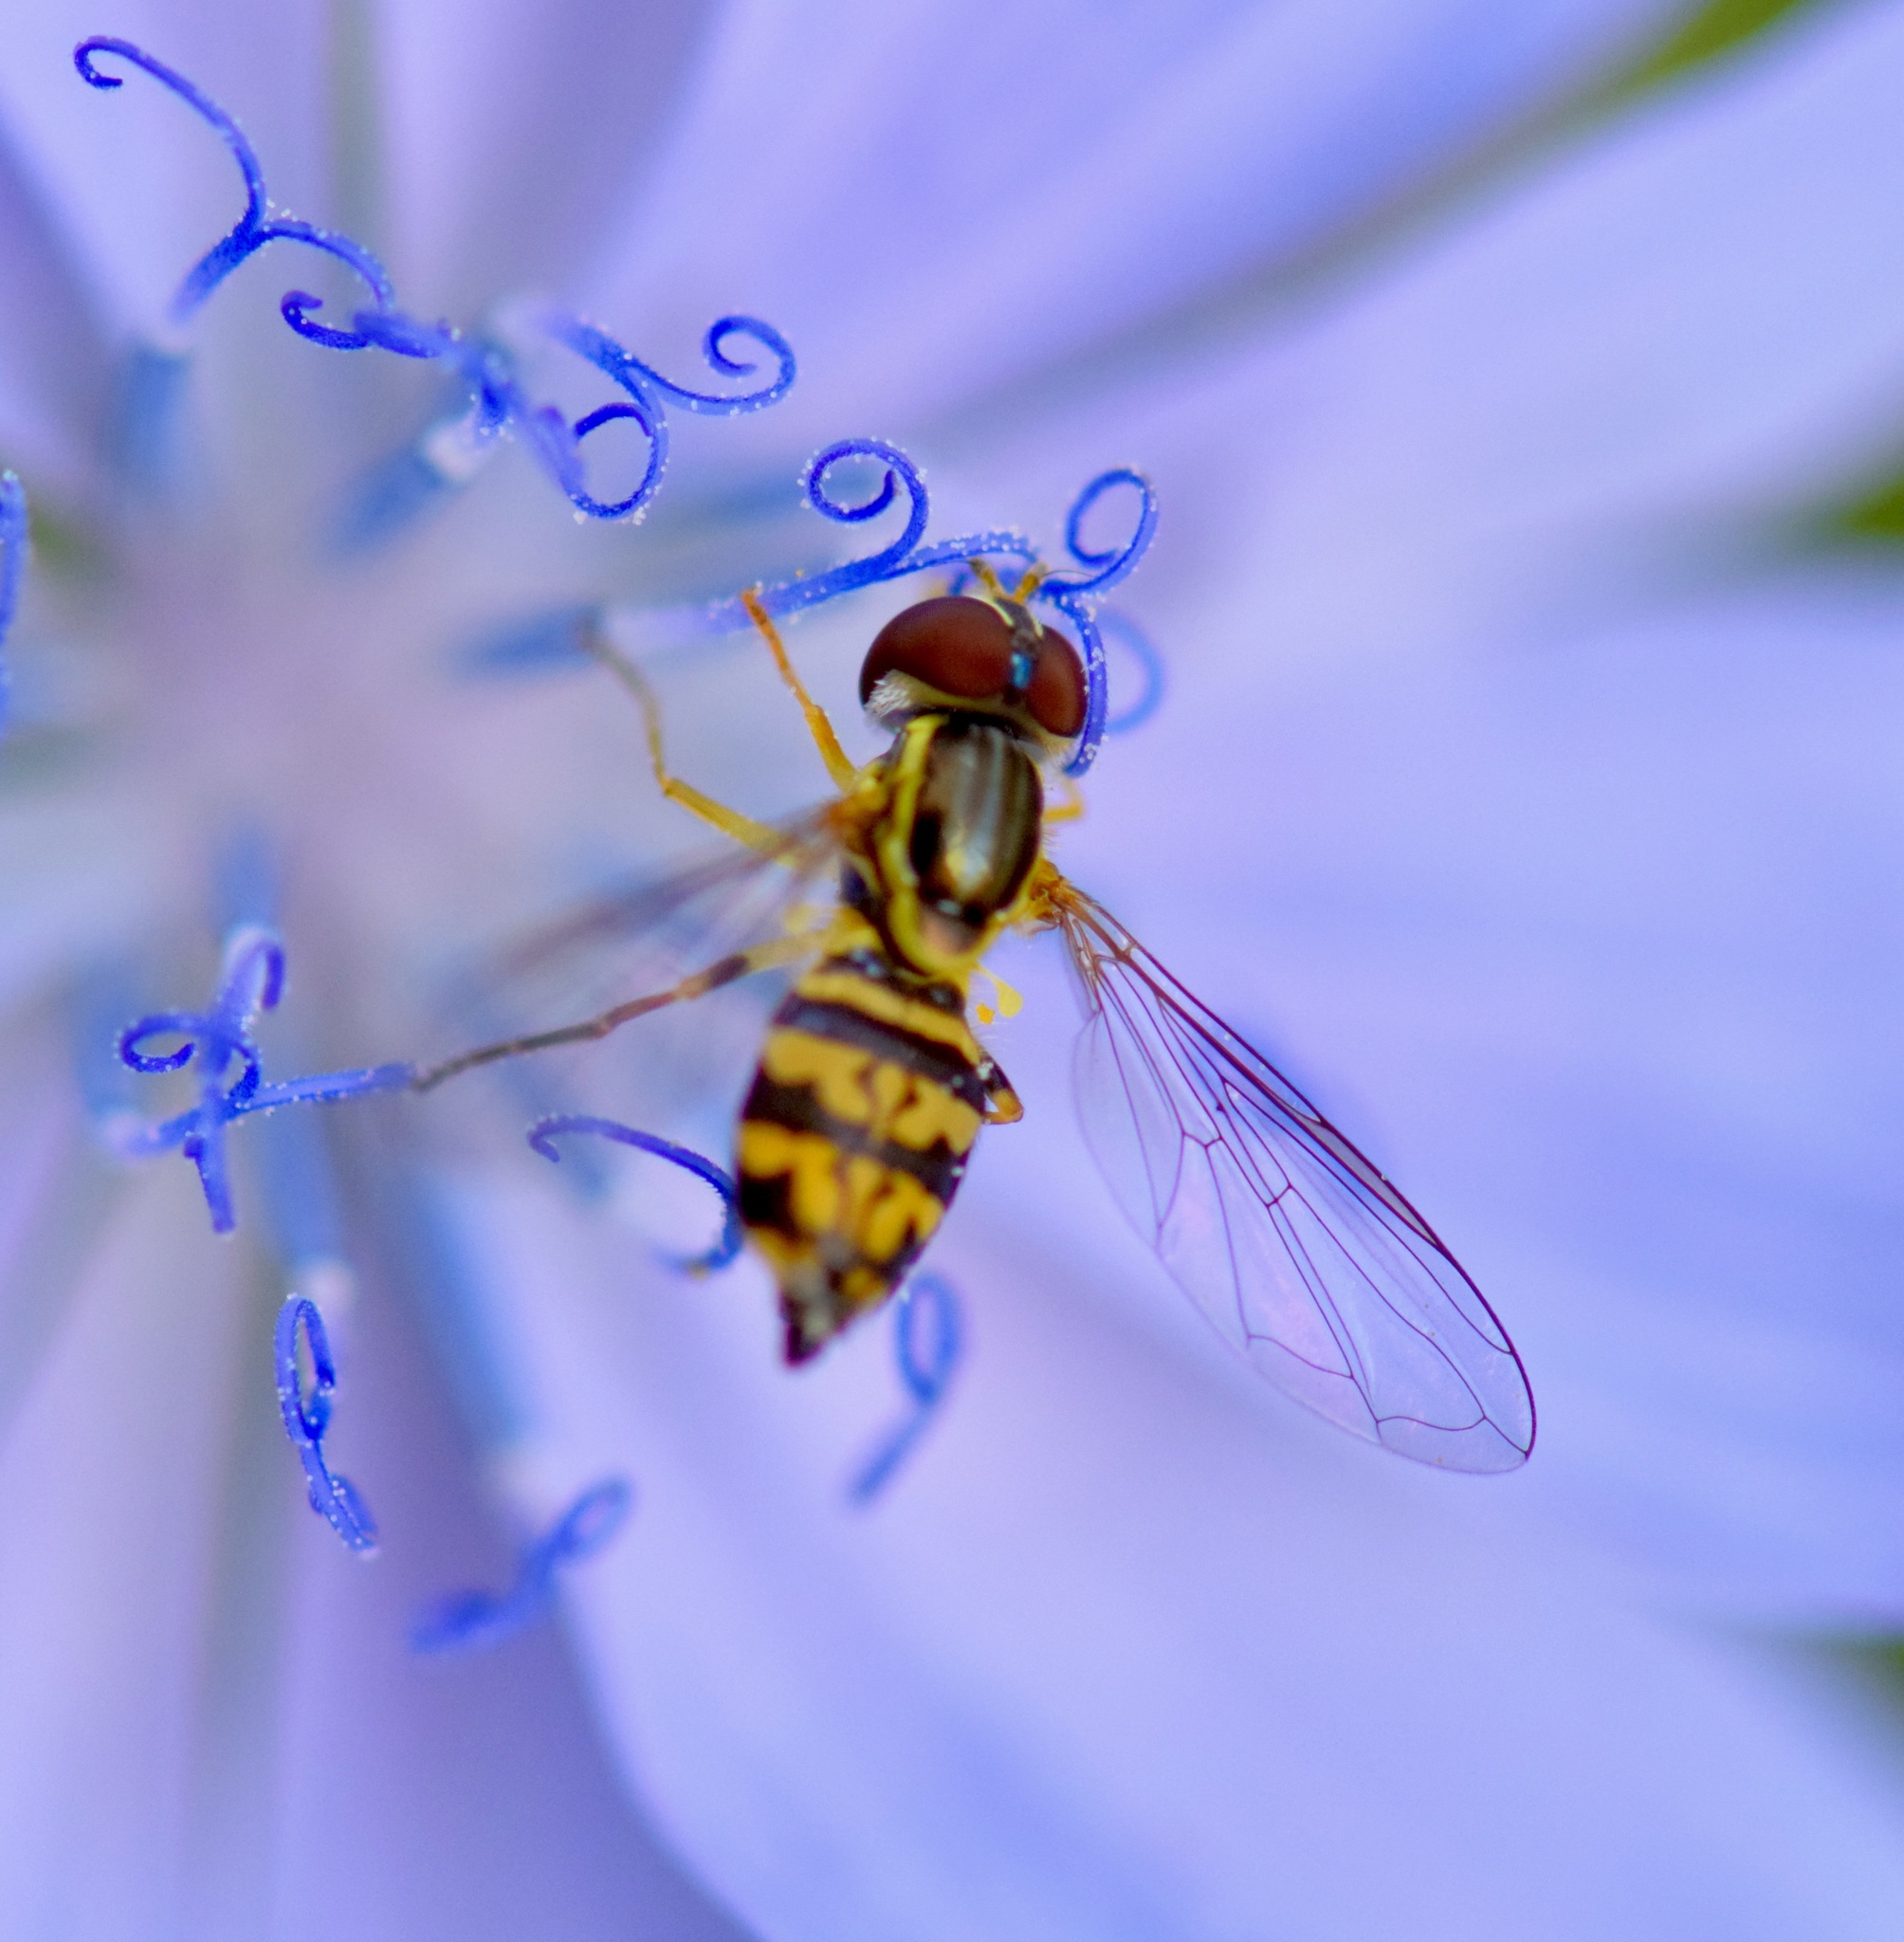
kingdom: Animalia
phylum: Arthropoda
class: Insecta
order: Diptera
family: Syrphidae
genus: Toxomerus
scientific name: Toxomerus geminatus
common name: Eastern calligrapher
